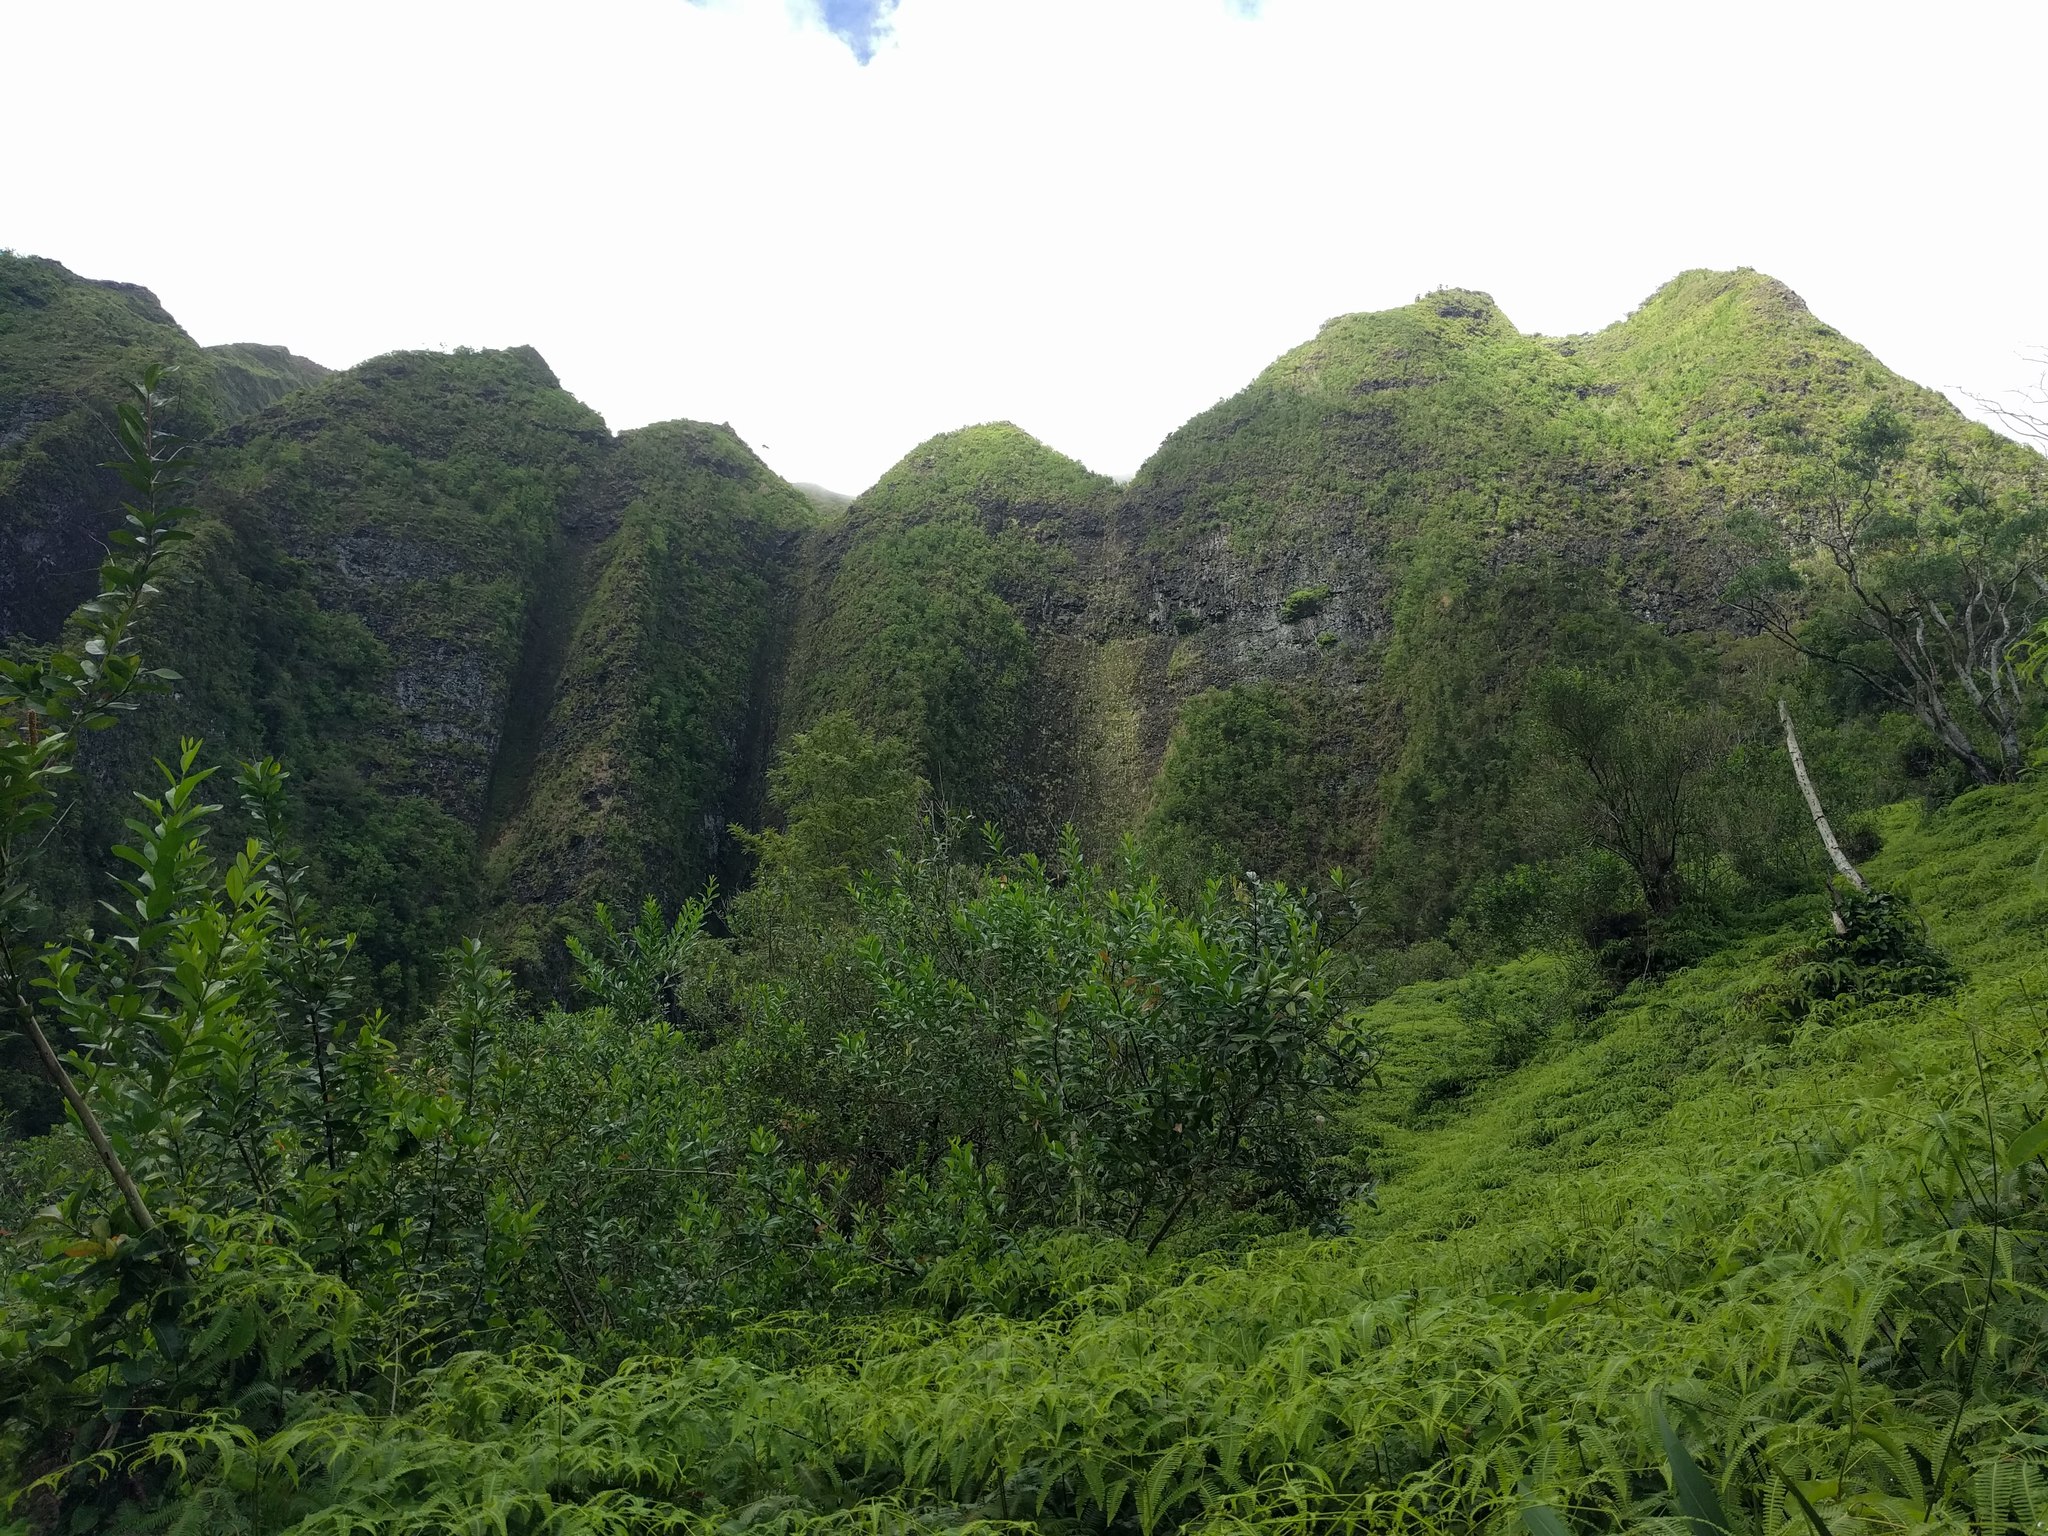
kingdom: Plantae
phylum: Tracheophyta
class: Polypodiopsida
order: Gleicheniales
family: Gleicheniaceae
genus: Dicranopteris
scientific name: Dicranopteris linearis
